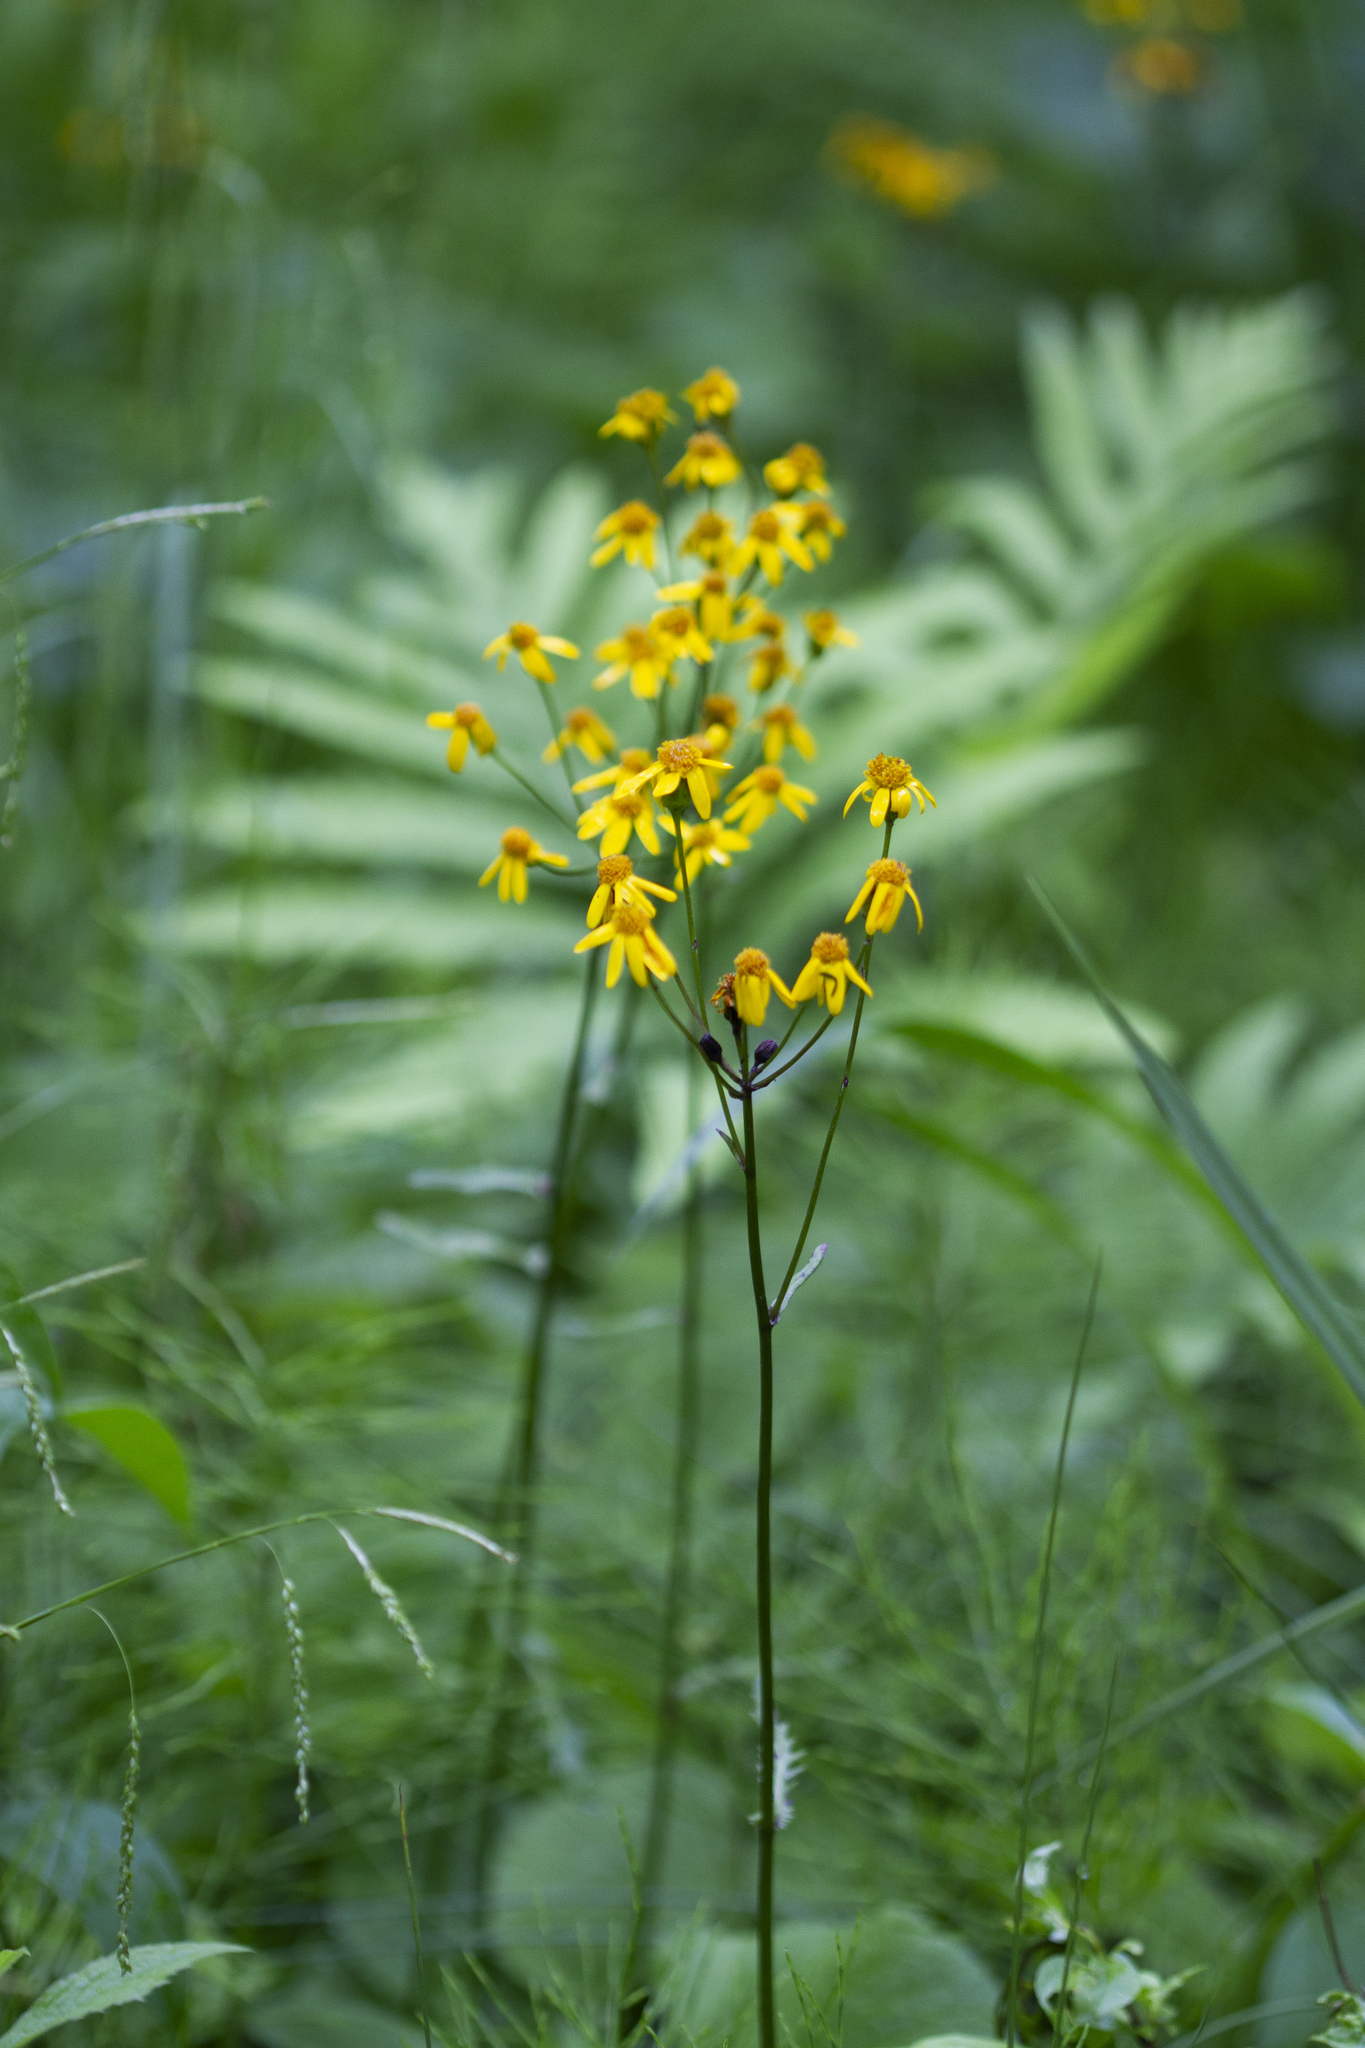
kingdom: Plantae
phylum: Tracheophyta
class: Magnoliopsida
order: Asterales
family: Asteraceae
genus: Packera
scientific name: Packera aurea
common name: Golden groundsel
